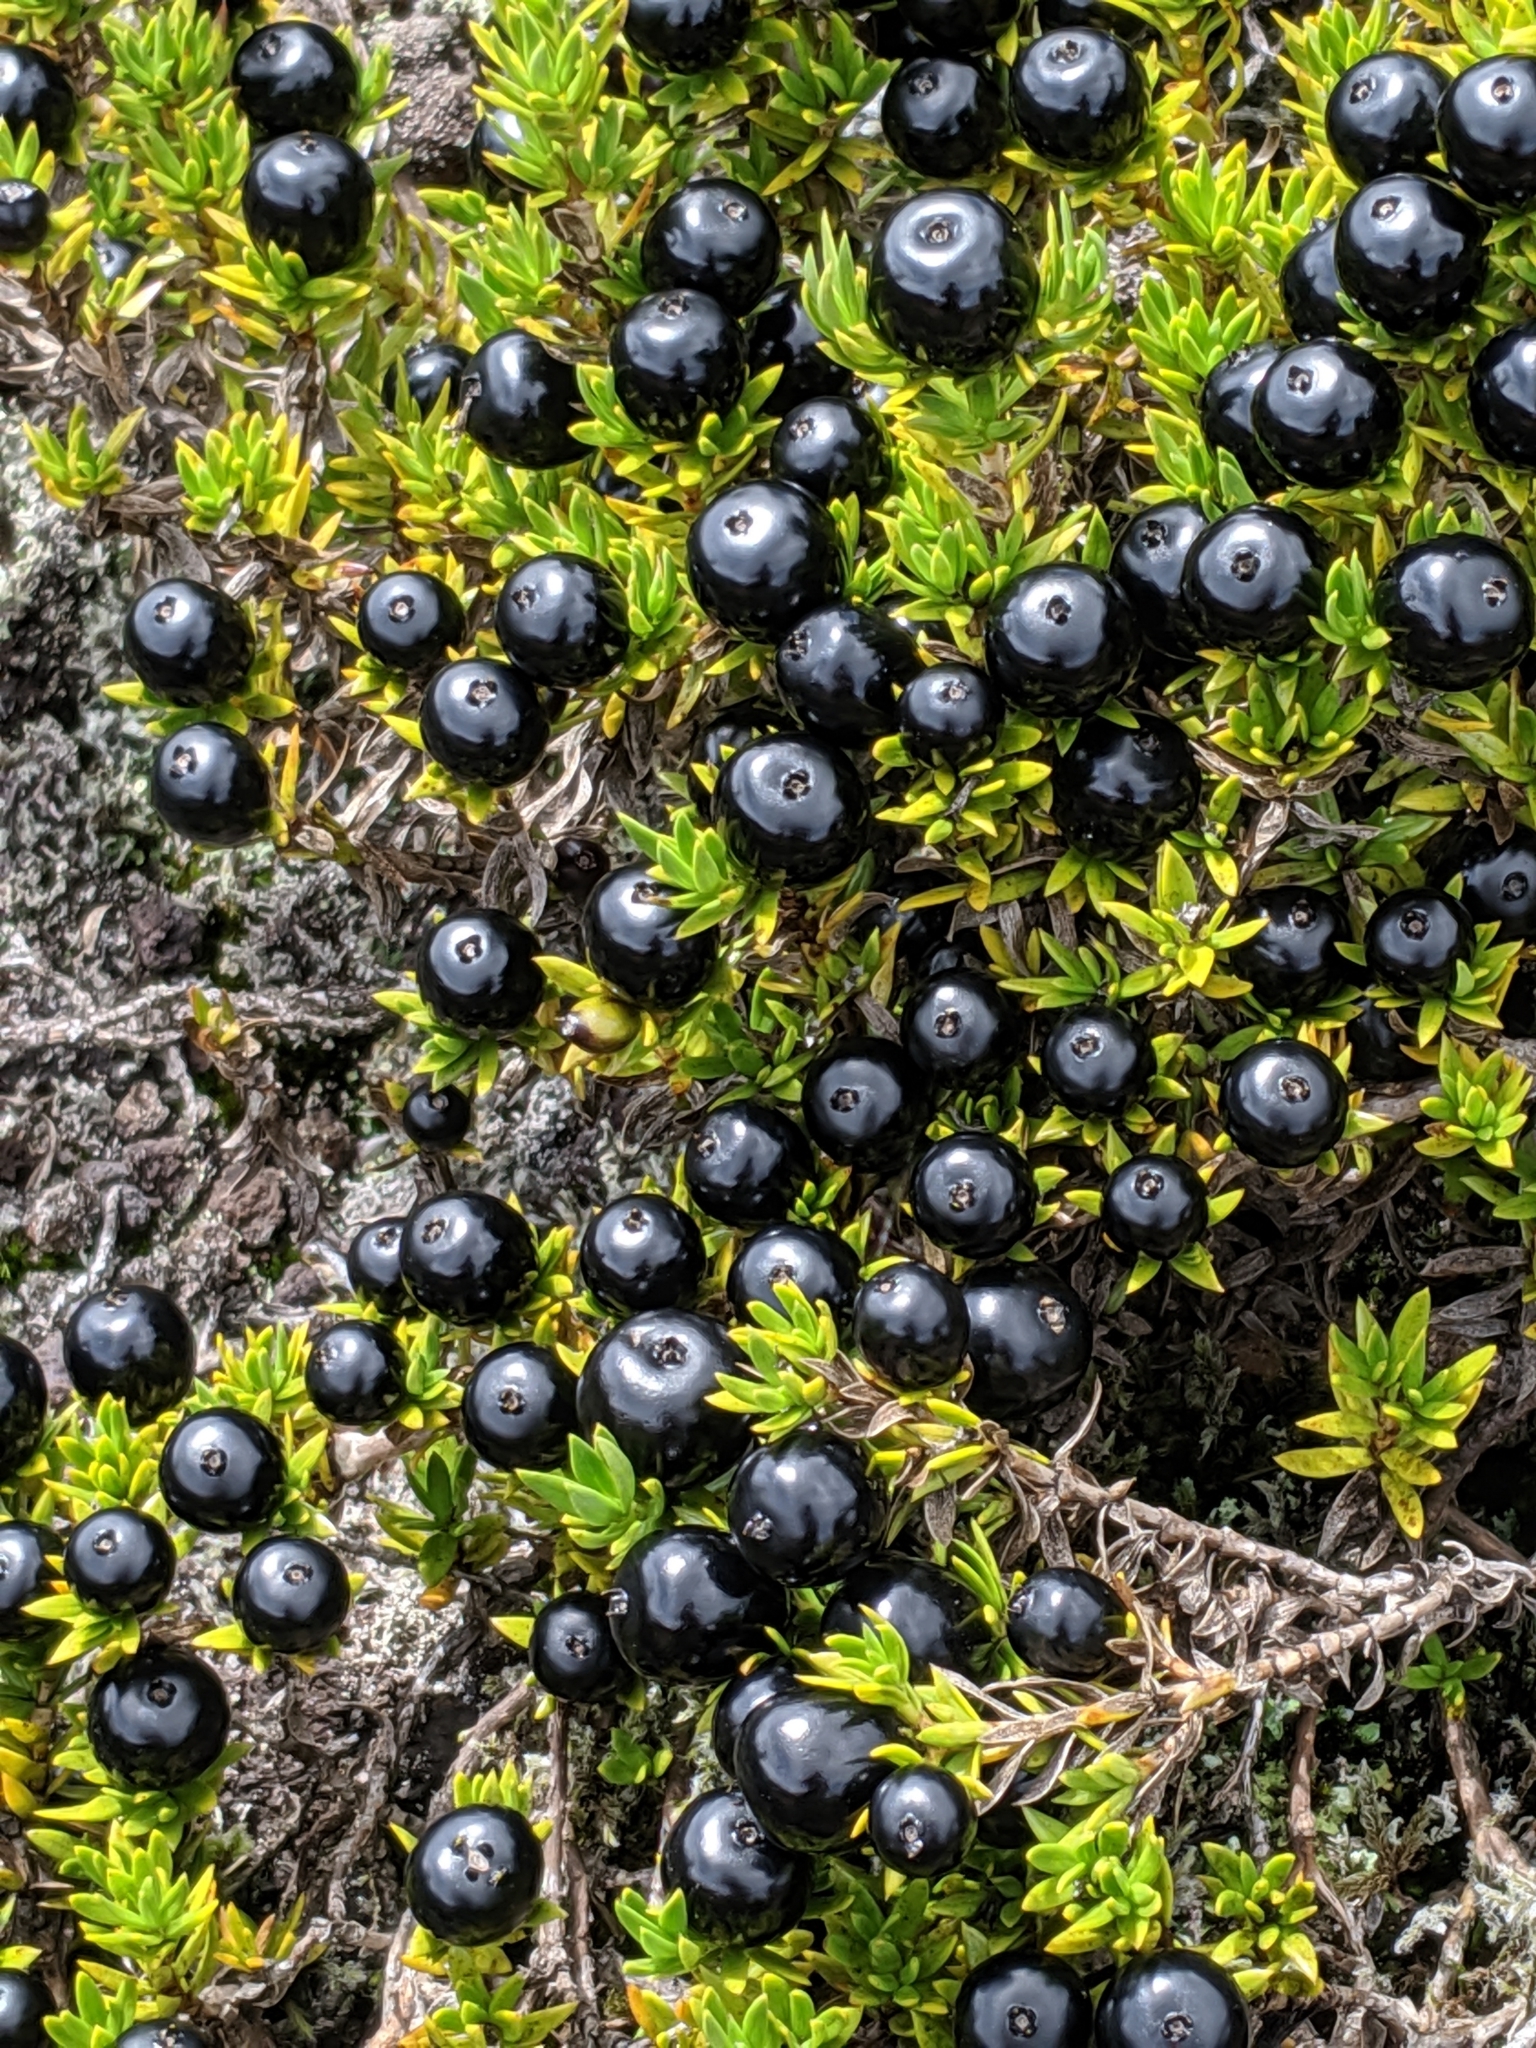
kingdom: Plantae
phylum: Tracheophyta
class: Magnoliopsida
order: Gentianales
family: Rubiaceae
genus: Coprosma
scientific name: Coprosma ernodeoides
